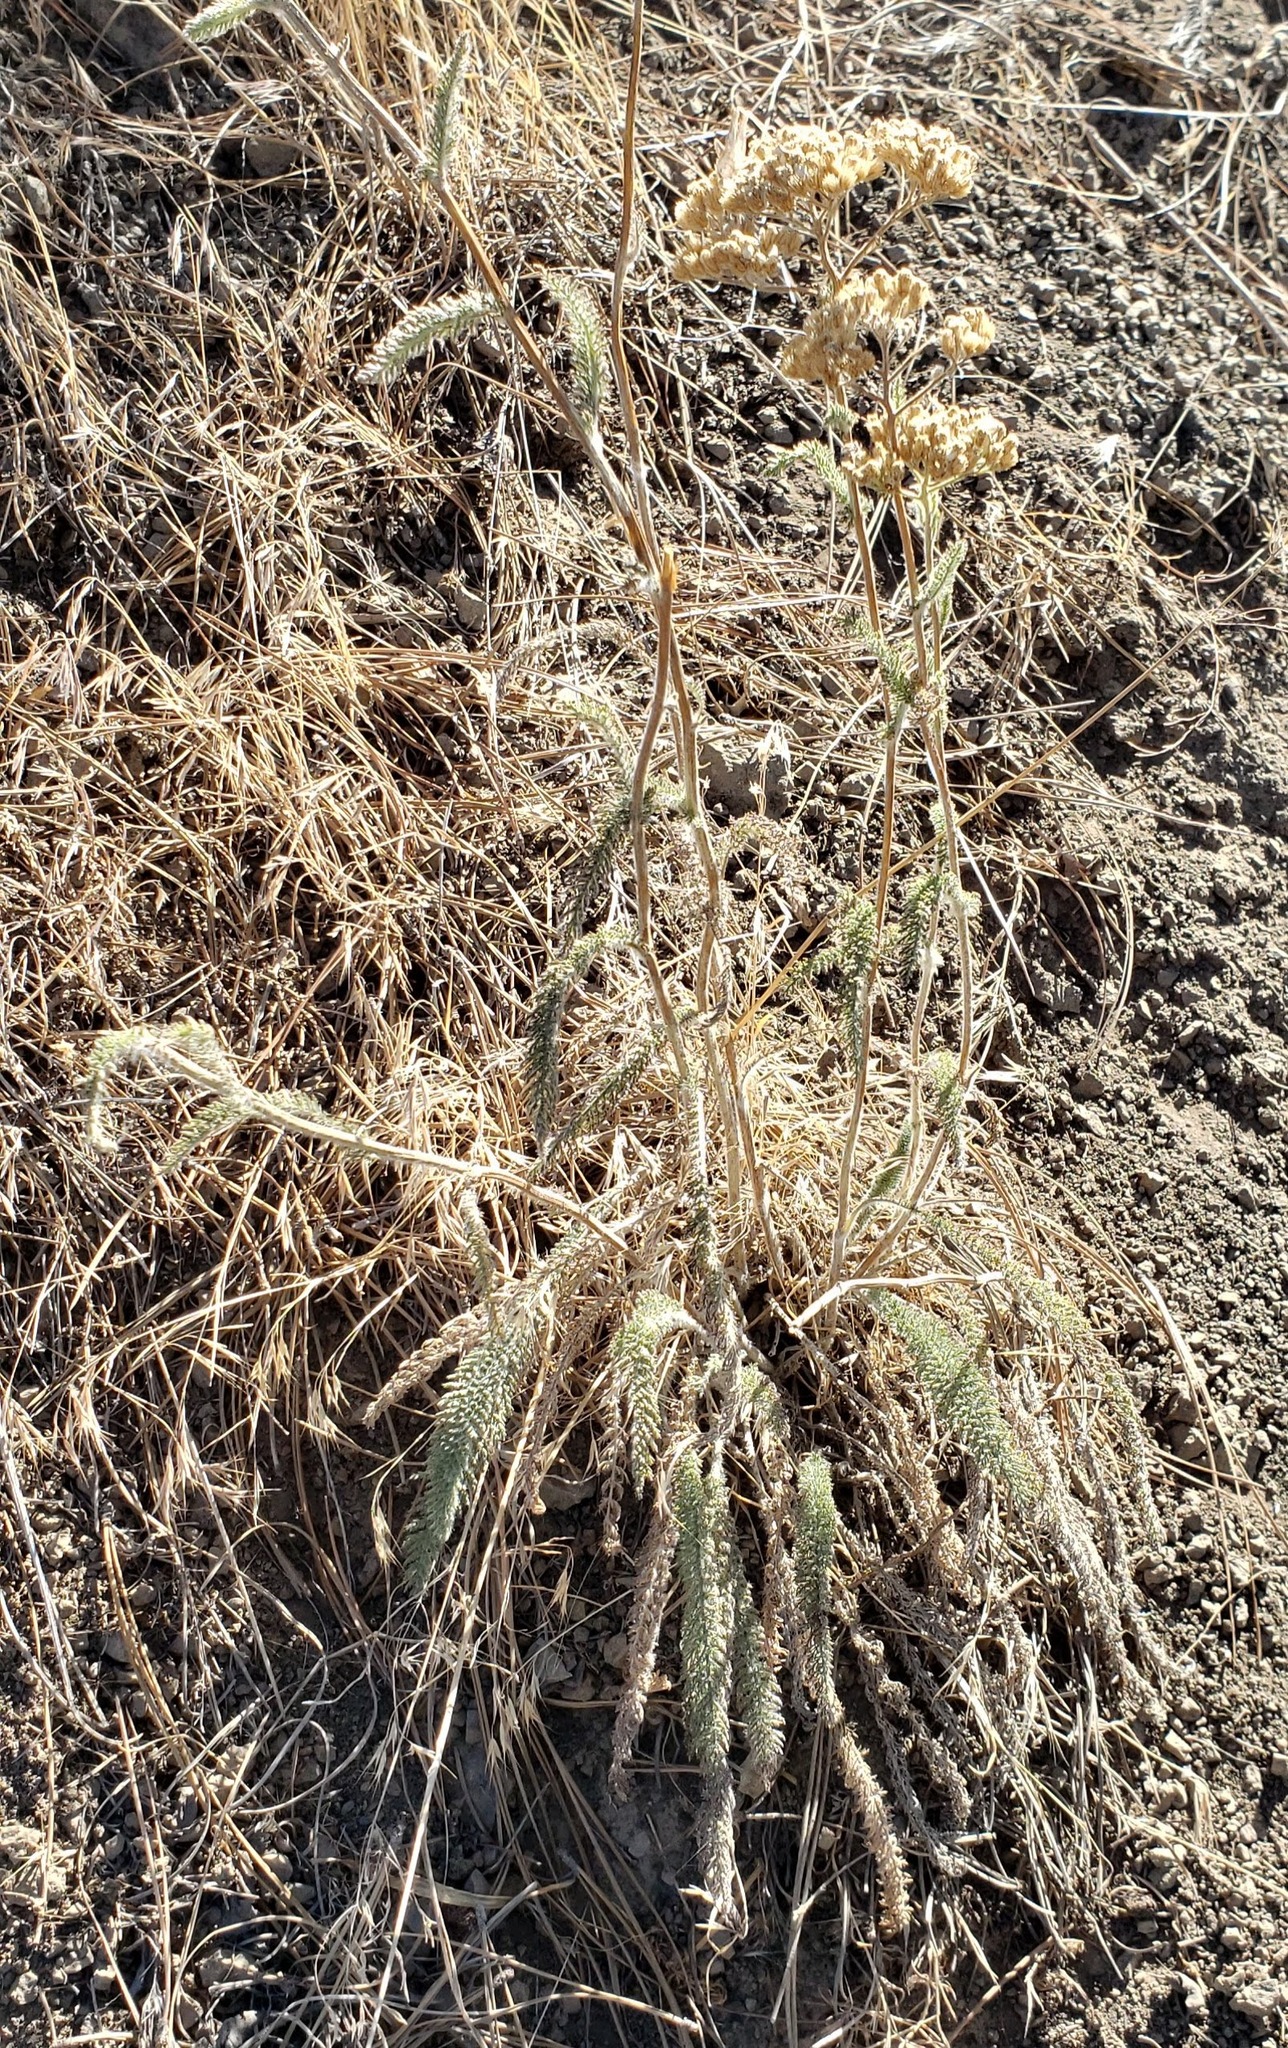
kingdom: Plantae
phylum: Tracheophyta
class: Magnoliopsida
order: Asterales
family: Asteraceae
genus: Achillea
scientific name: Achillea millefolium
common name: Yarrow
